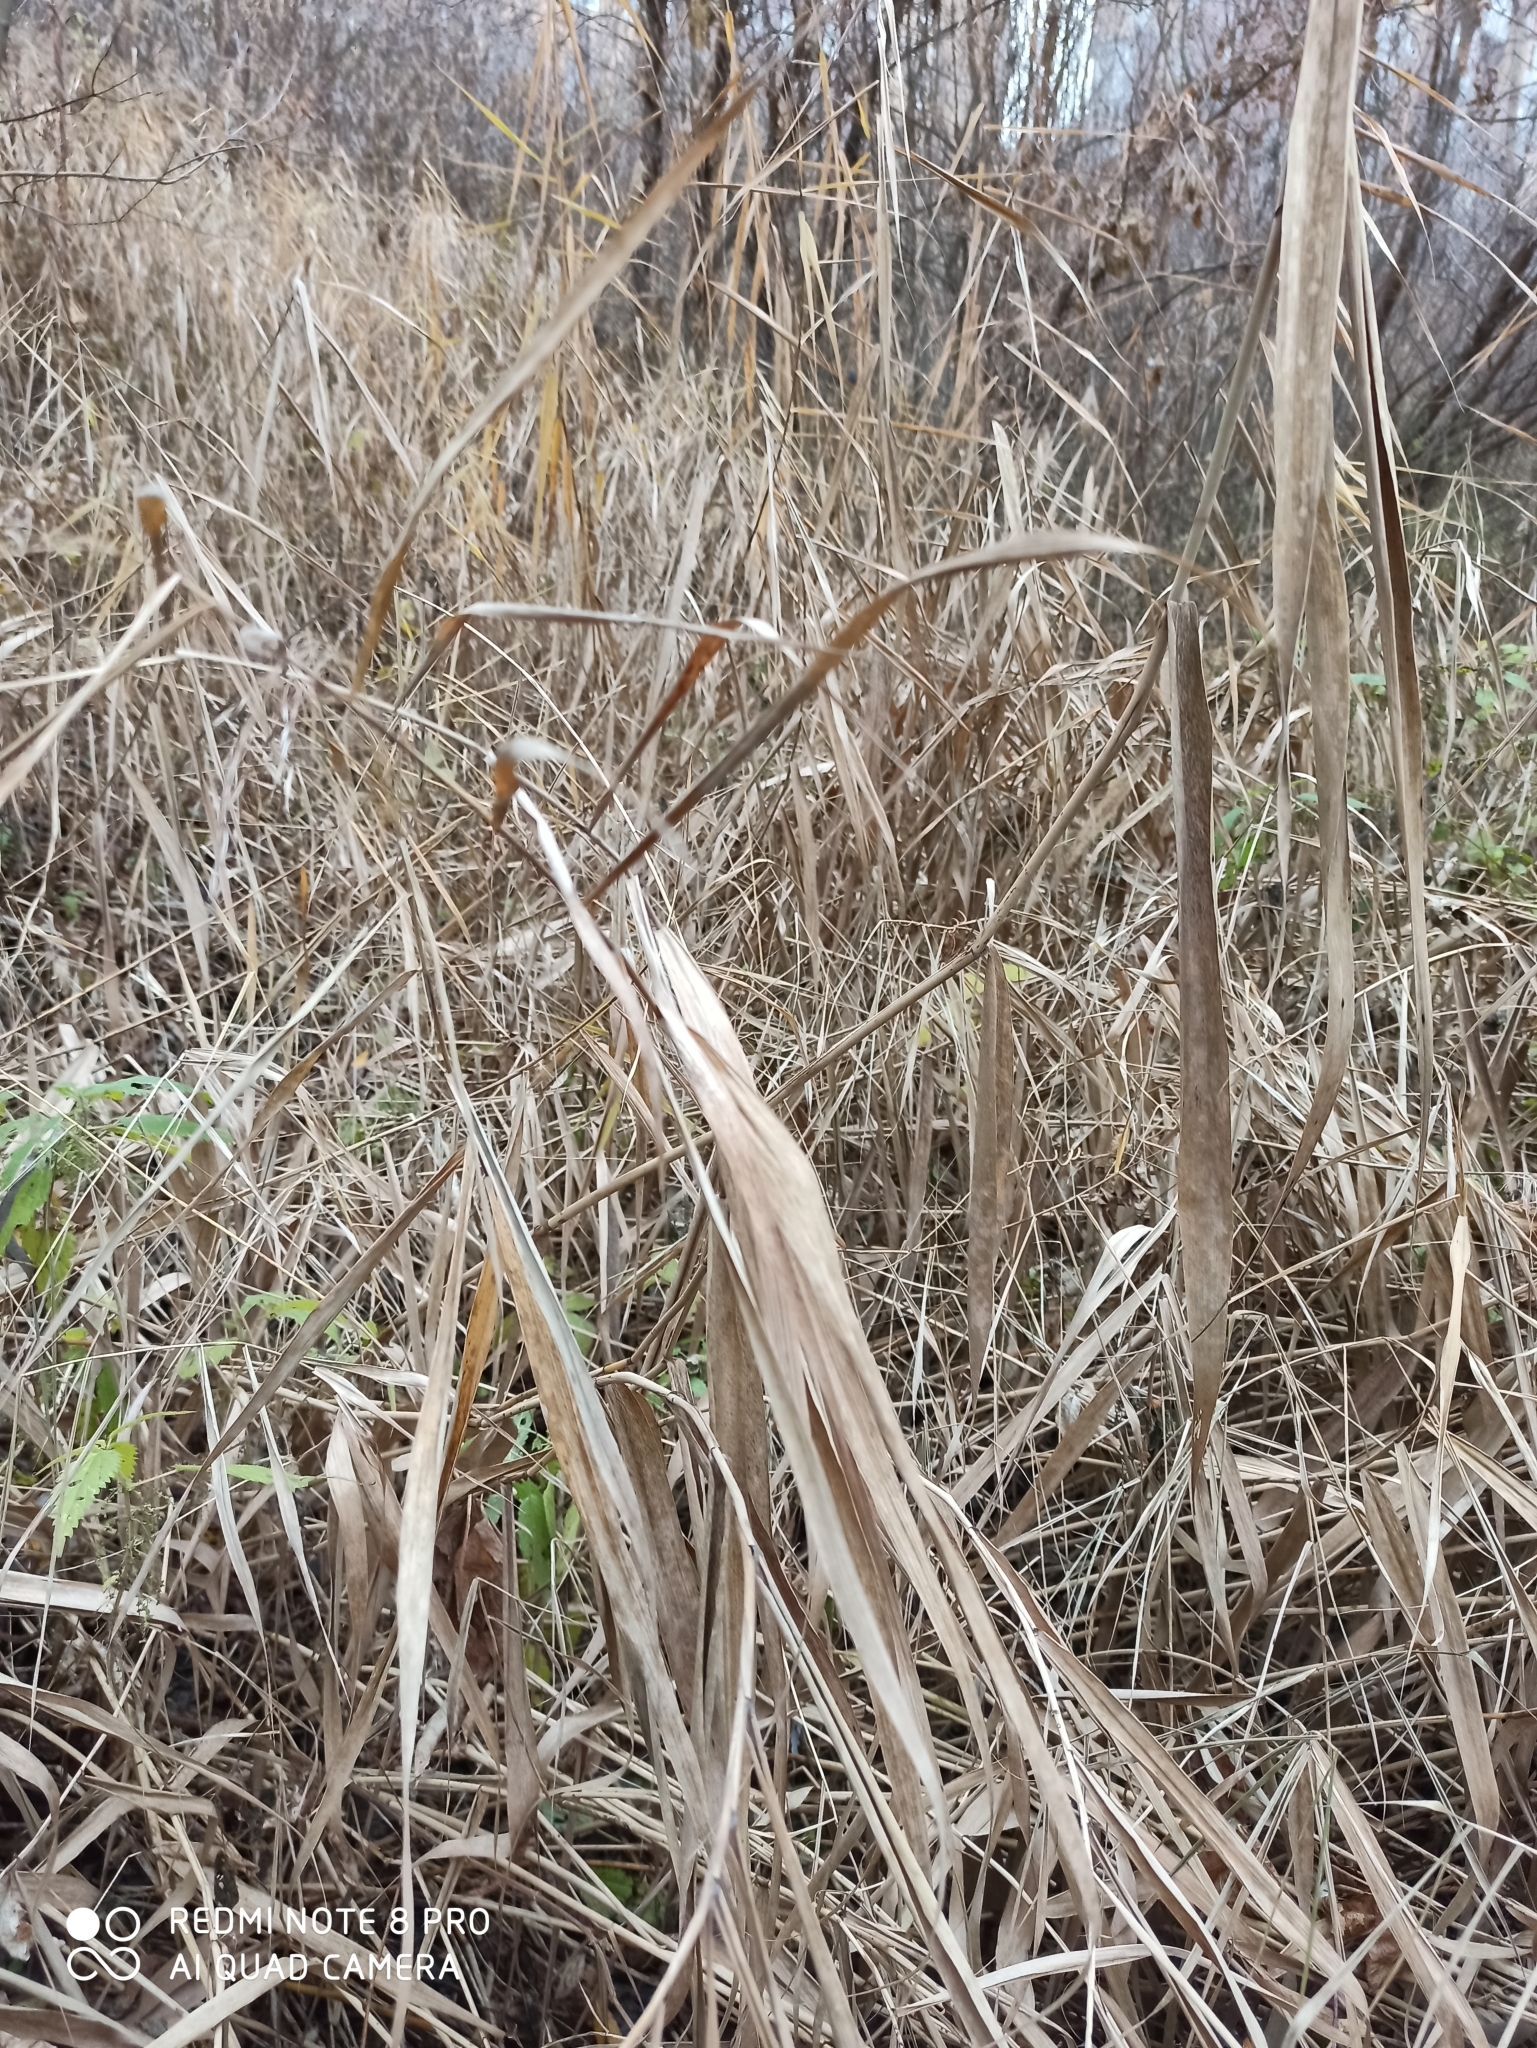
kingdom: Plantae
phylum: Tracheophyta
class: Liliopsida
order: Poales
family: Poaceae
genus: Phragmites
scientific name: Phragmites australis
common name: Common reed
